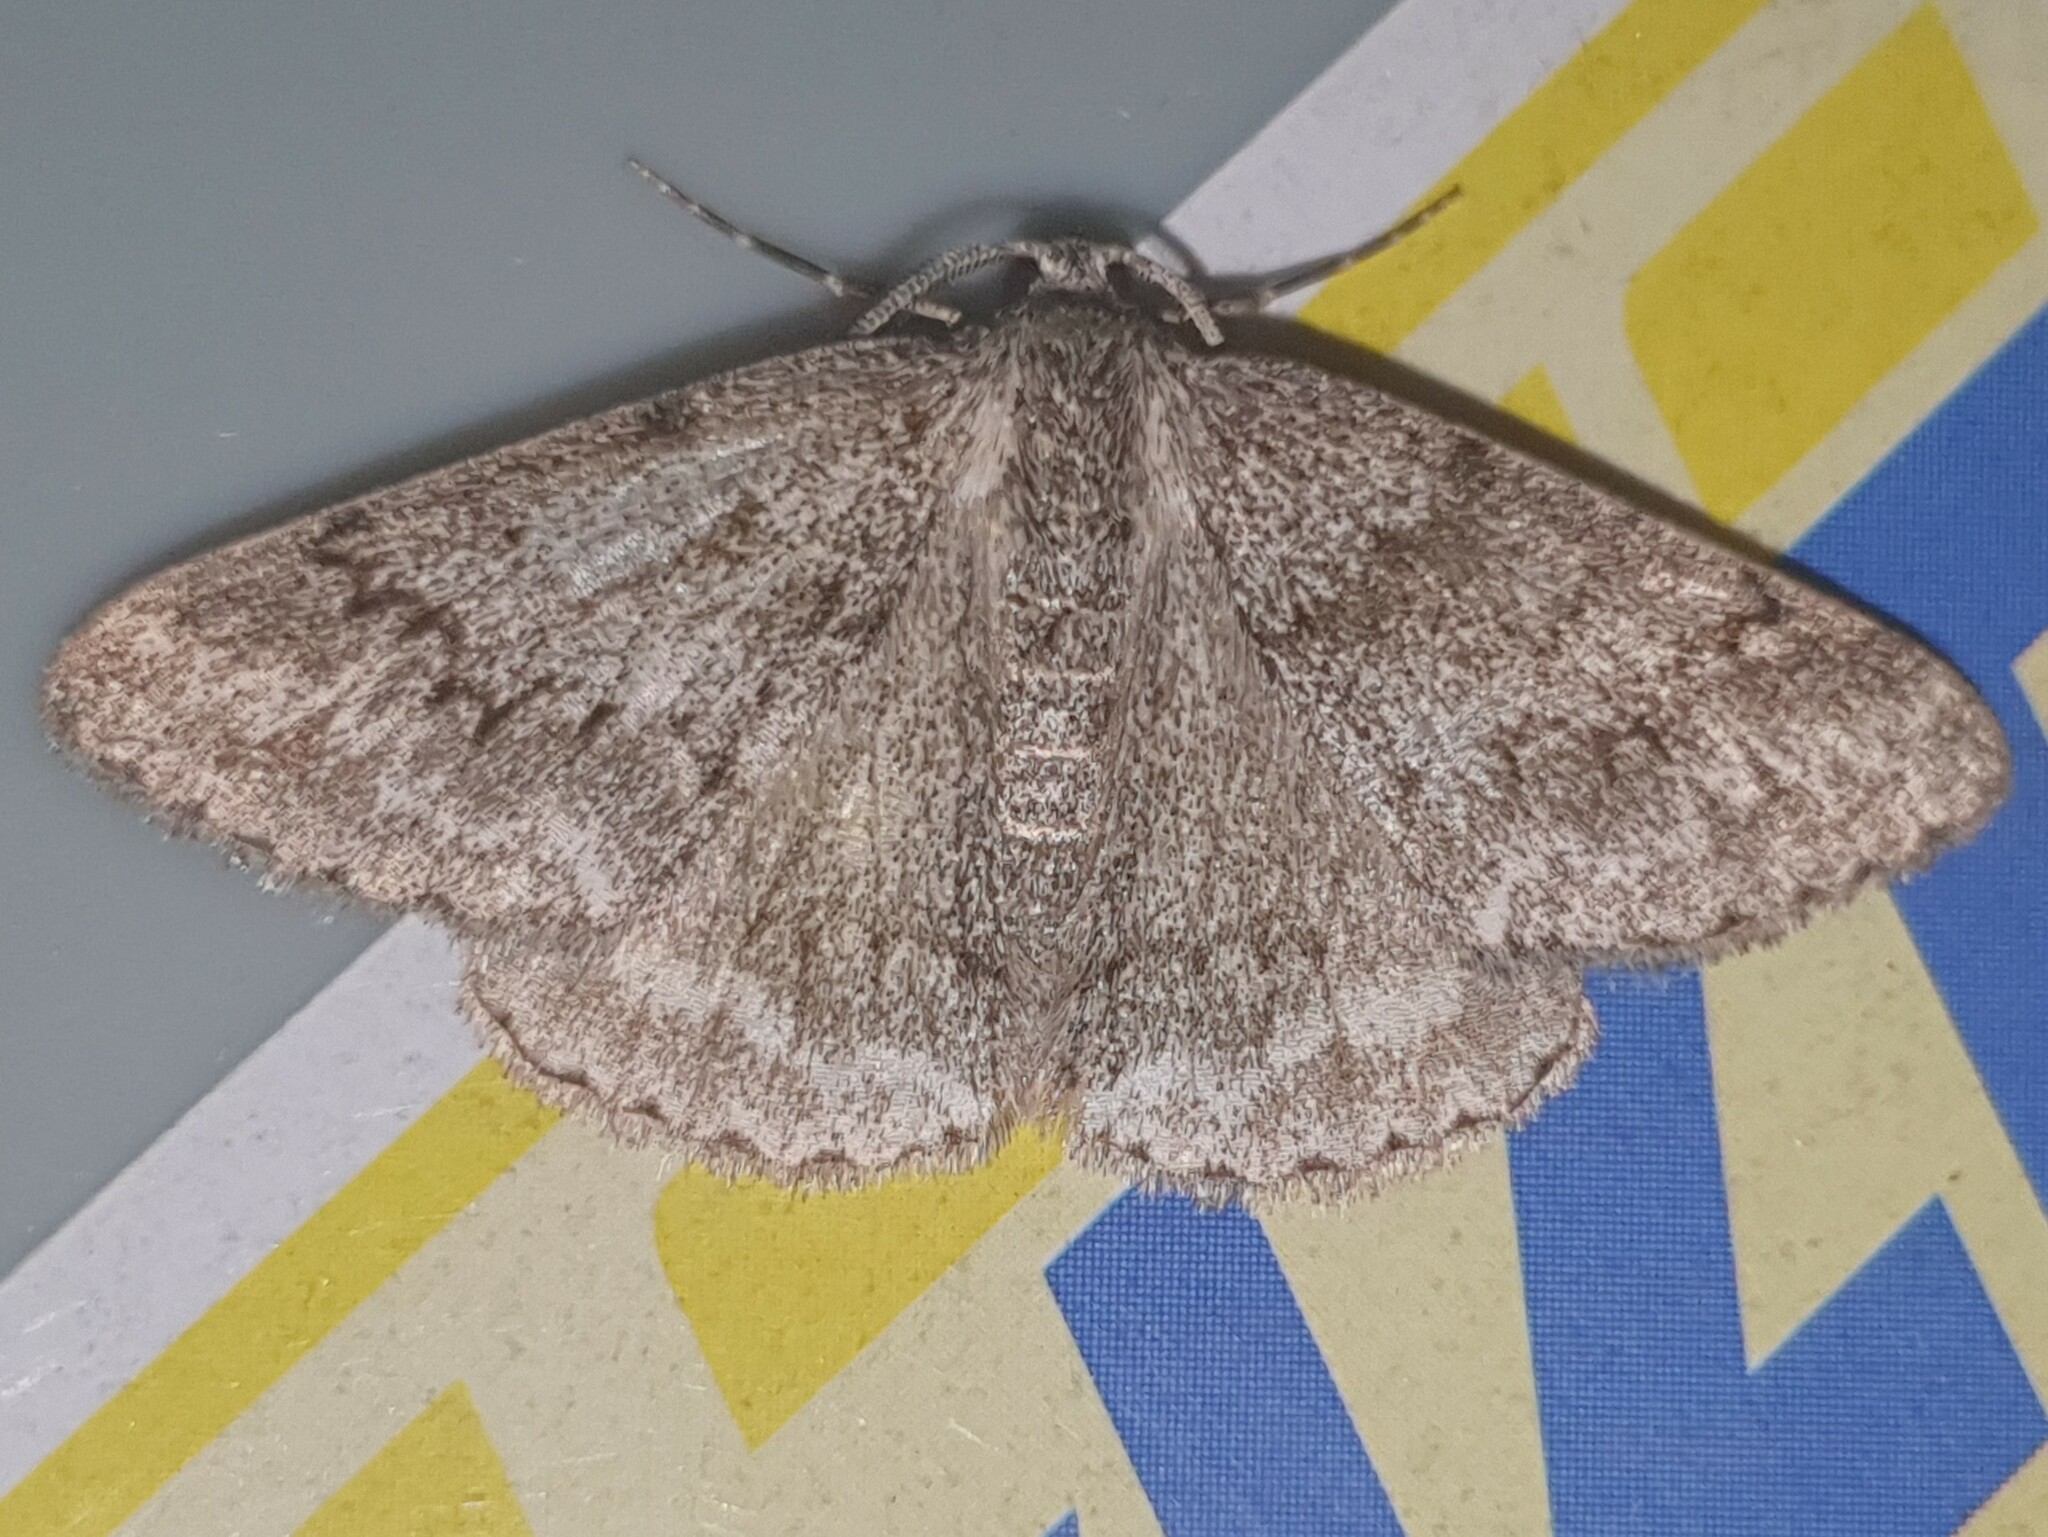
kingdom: Animalia
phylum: Arthropoda
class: Insecta
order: Lepidoptera
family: Geometridae
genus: Pseudoterpna
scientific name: Pseudoterpna coronillaria
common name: Jersey emerald
